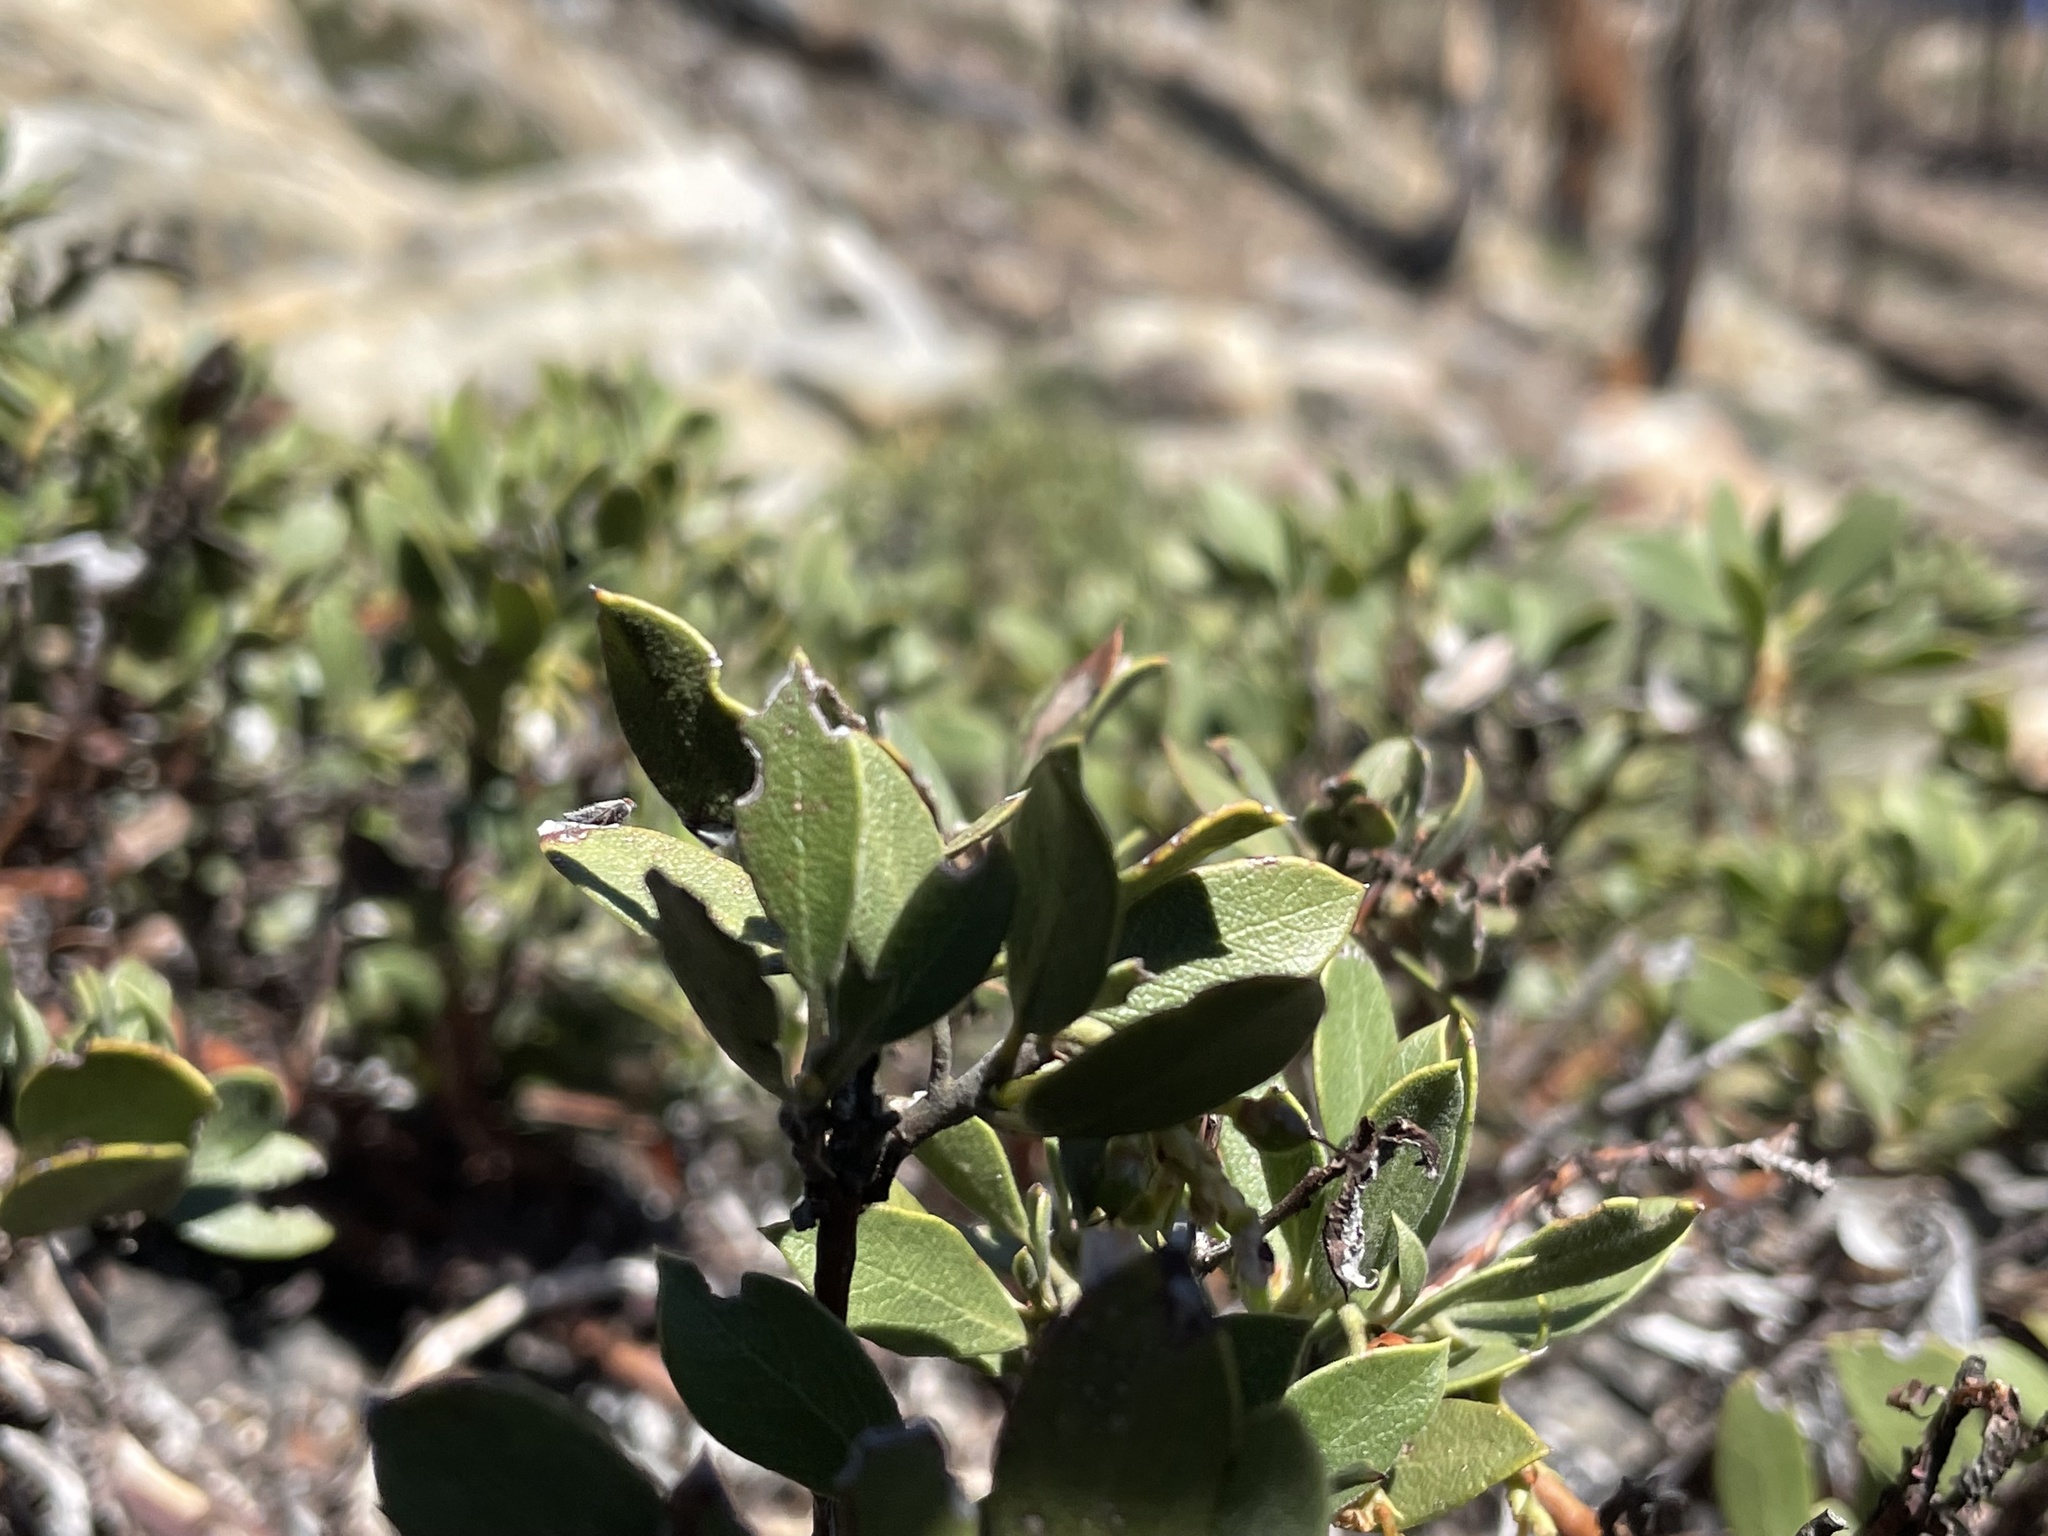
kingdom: Plantae
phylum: Tracheophyta
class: Magnoliopsida
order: Ericales
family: Ericaceae
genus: Arctostaphylos
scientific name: Arctostaphylos nevadensis
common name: Pinemat manzanita
